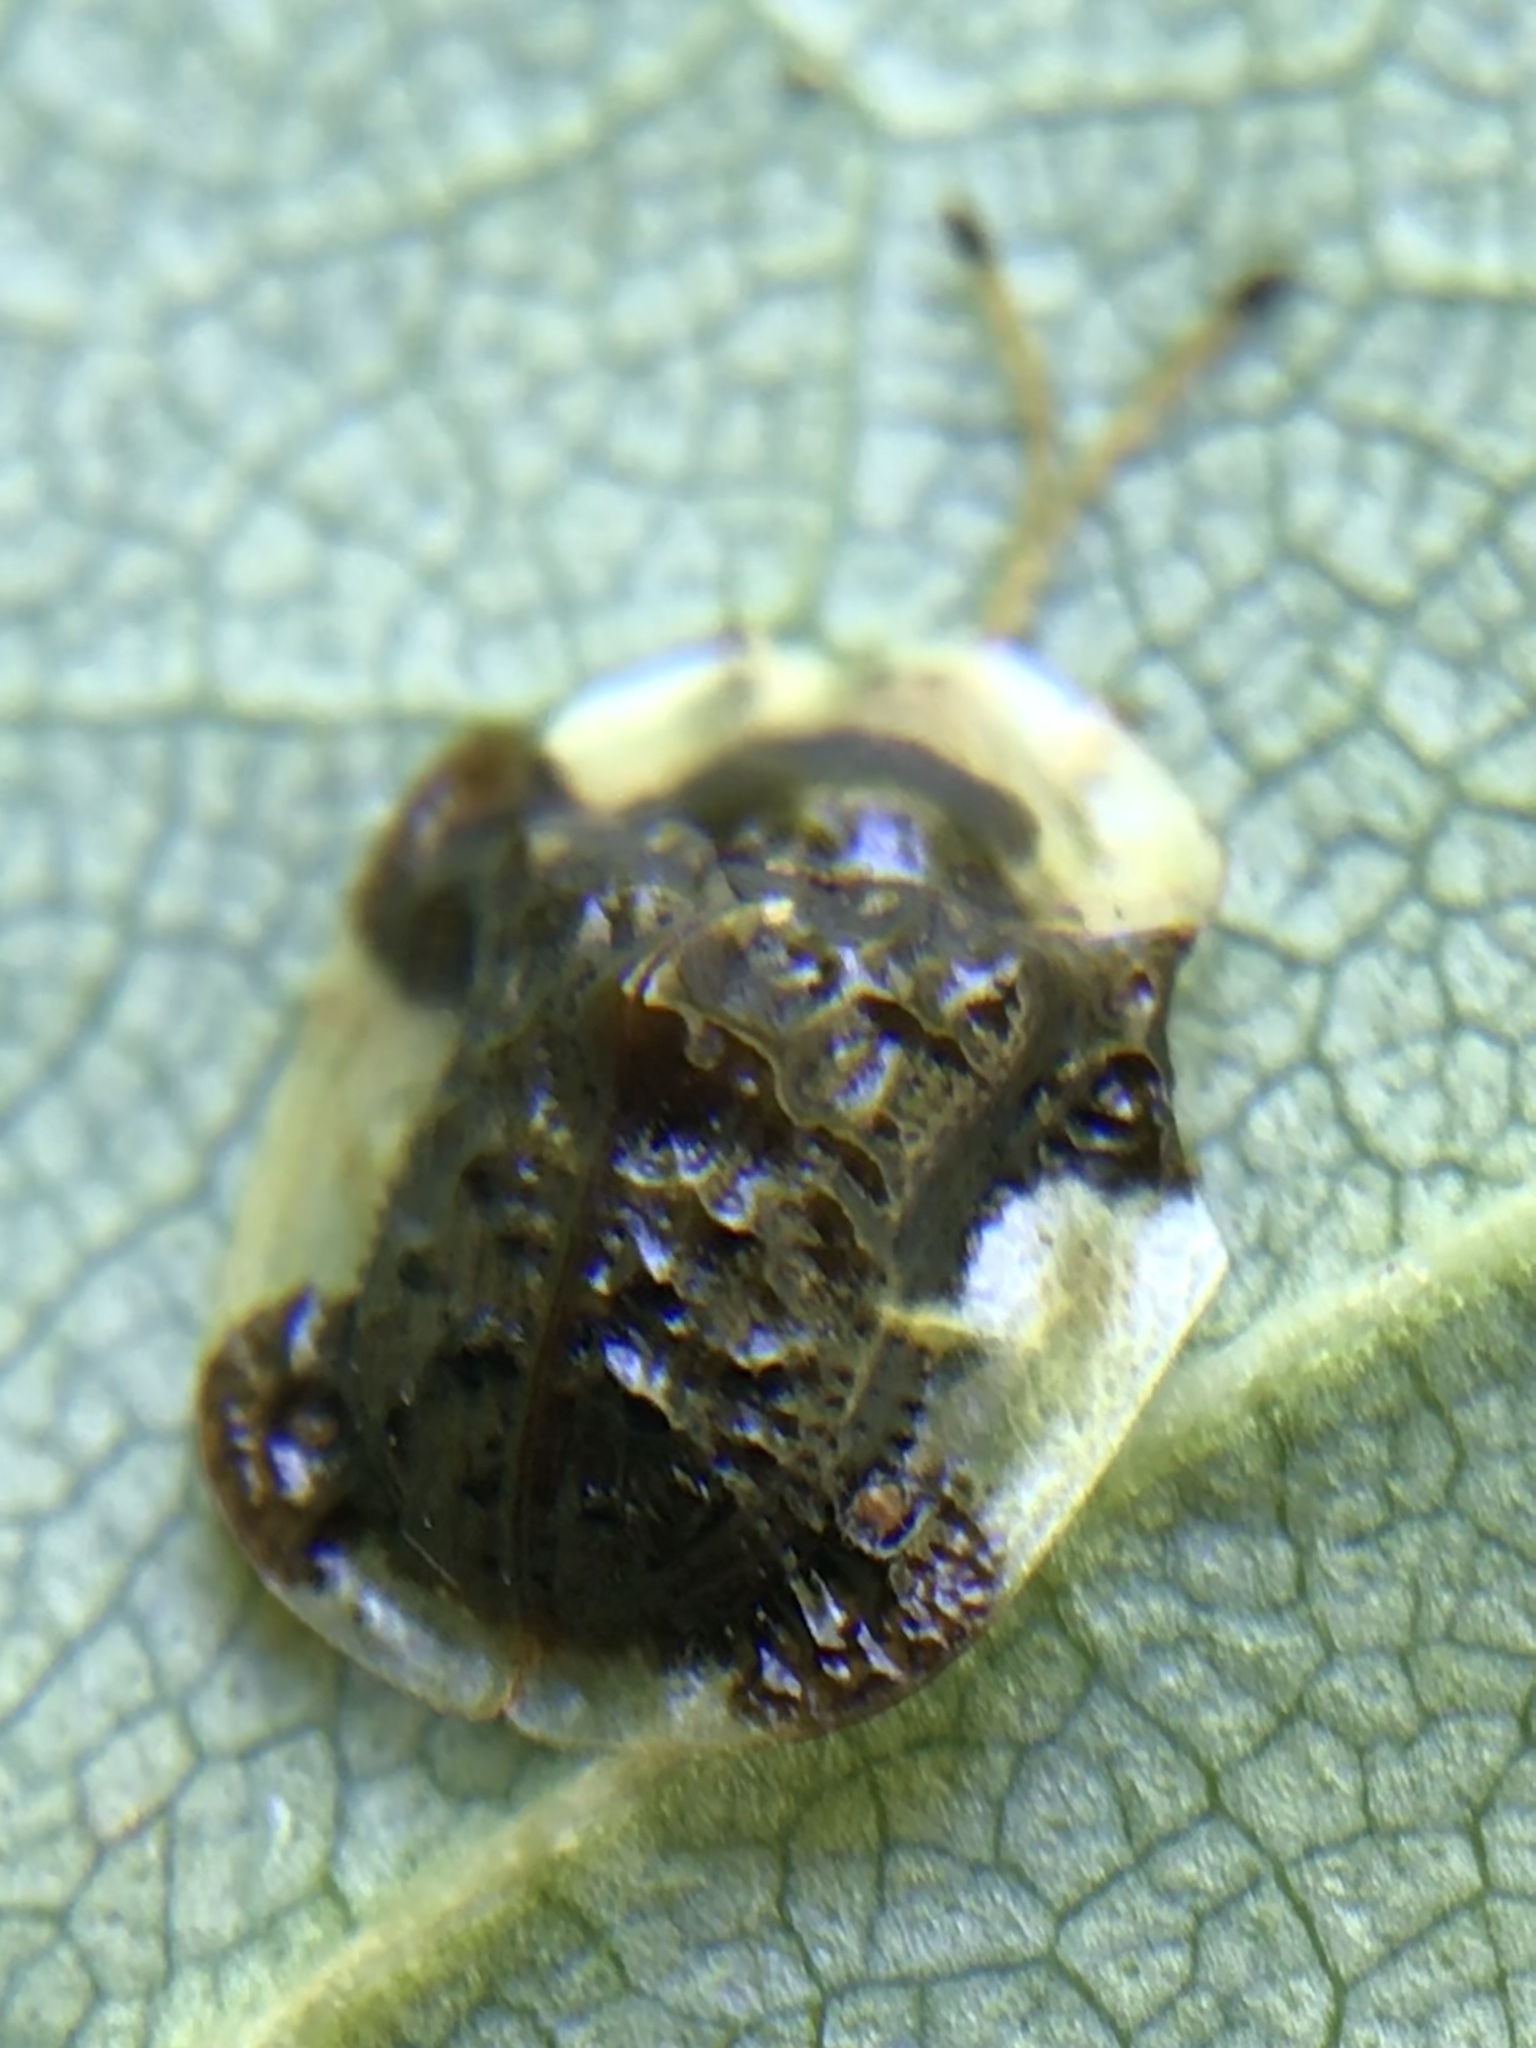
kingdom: Animalia
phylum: Arthropoda
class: Insecta
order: Coleoptera
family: Chrysomelidae
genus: Helocassis
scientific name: Helocassis clavata
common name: Clavate tortoise beetle
